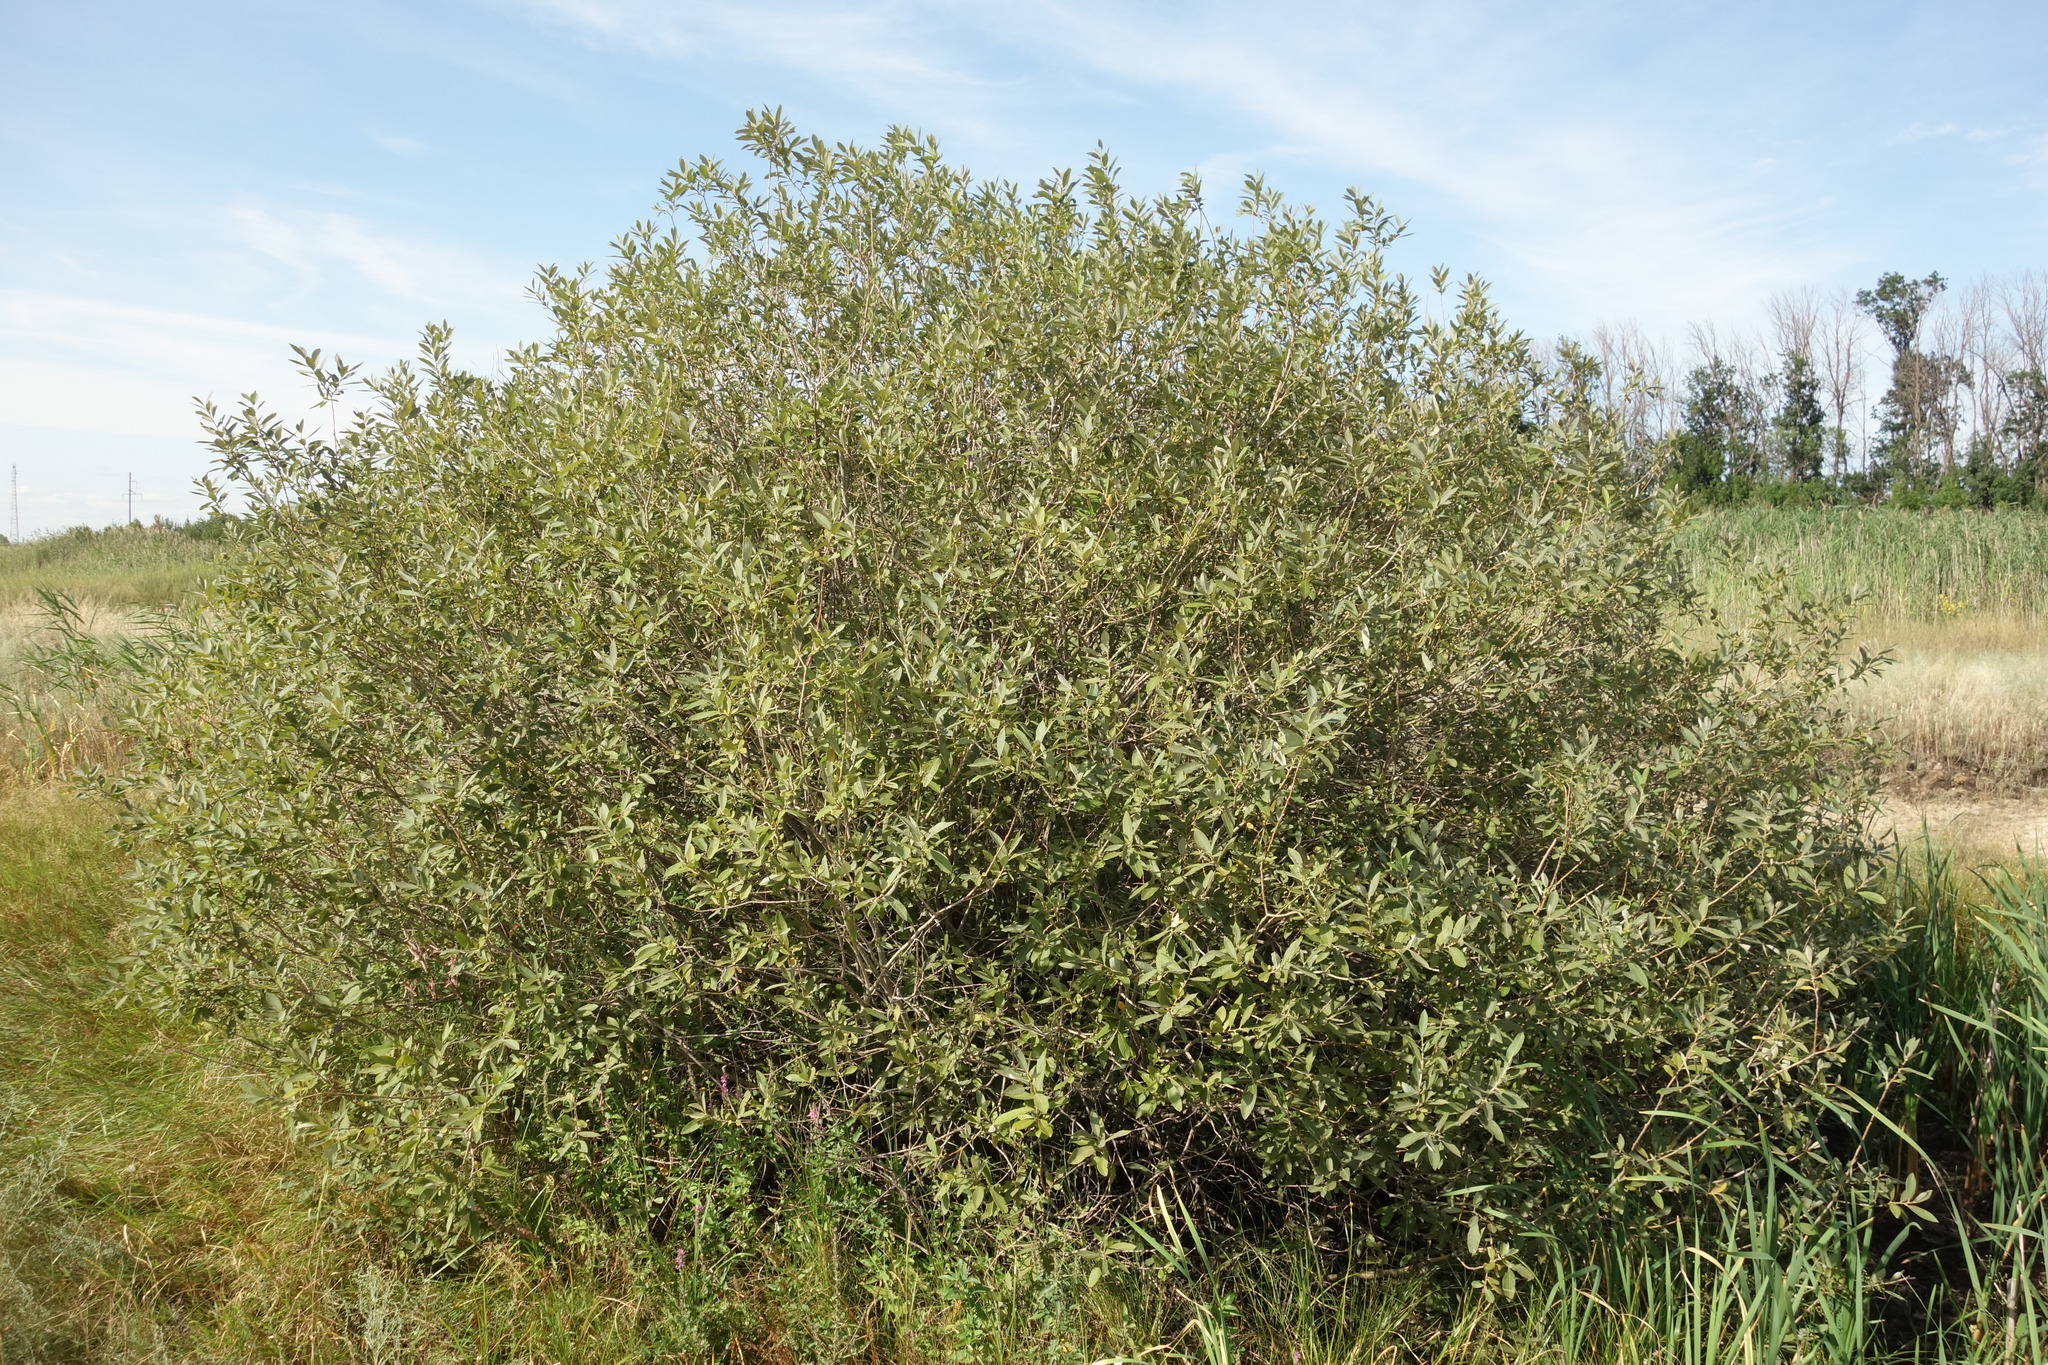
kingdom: Plantae
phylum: Tracheophyta
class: Magnoliopsida
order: Malpighiales
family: Salicaceae
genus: Salix
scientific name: Salix cinerea
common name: Common sallow
